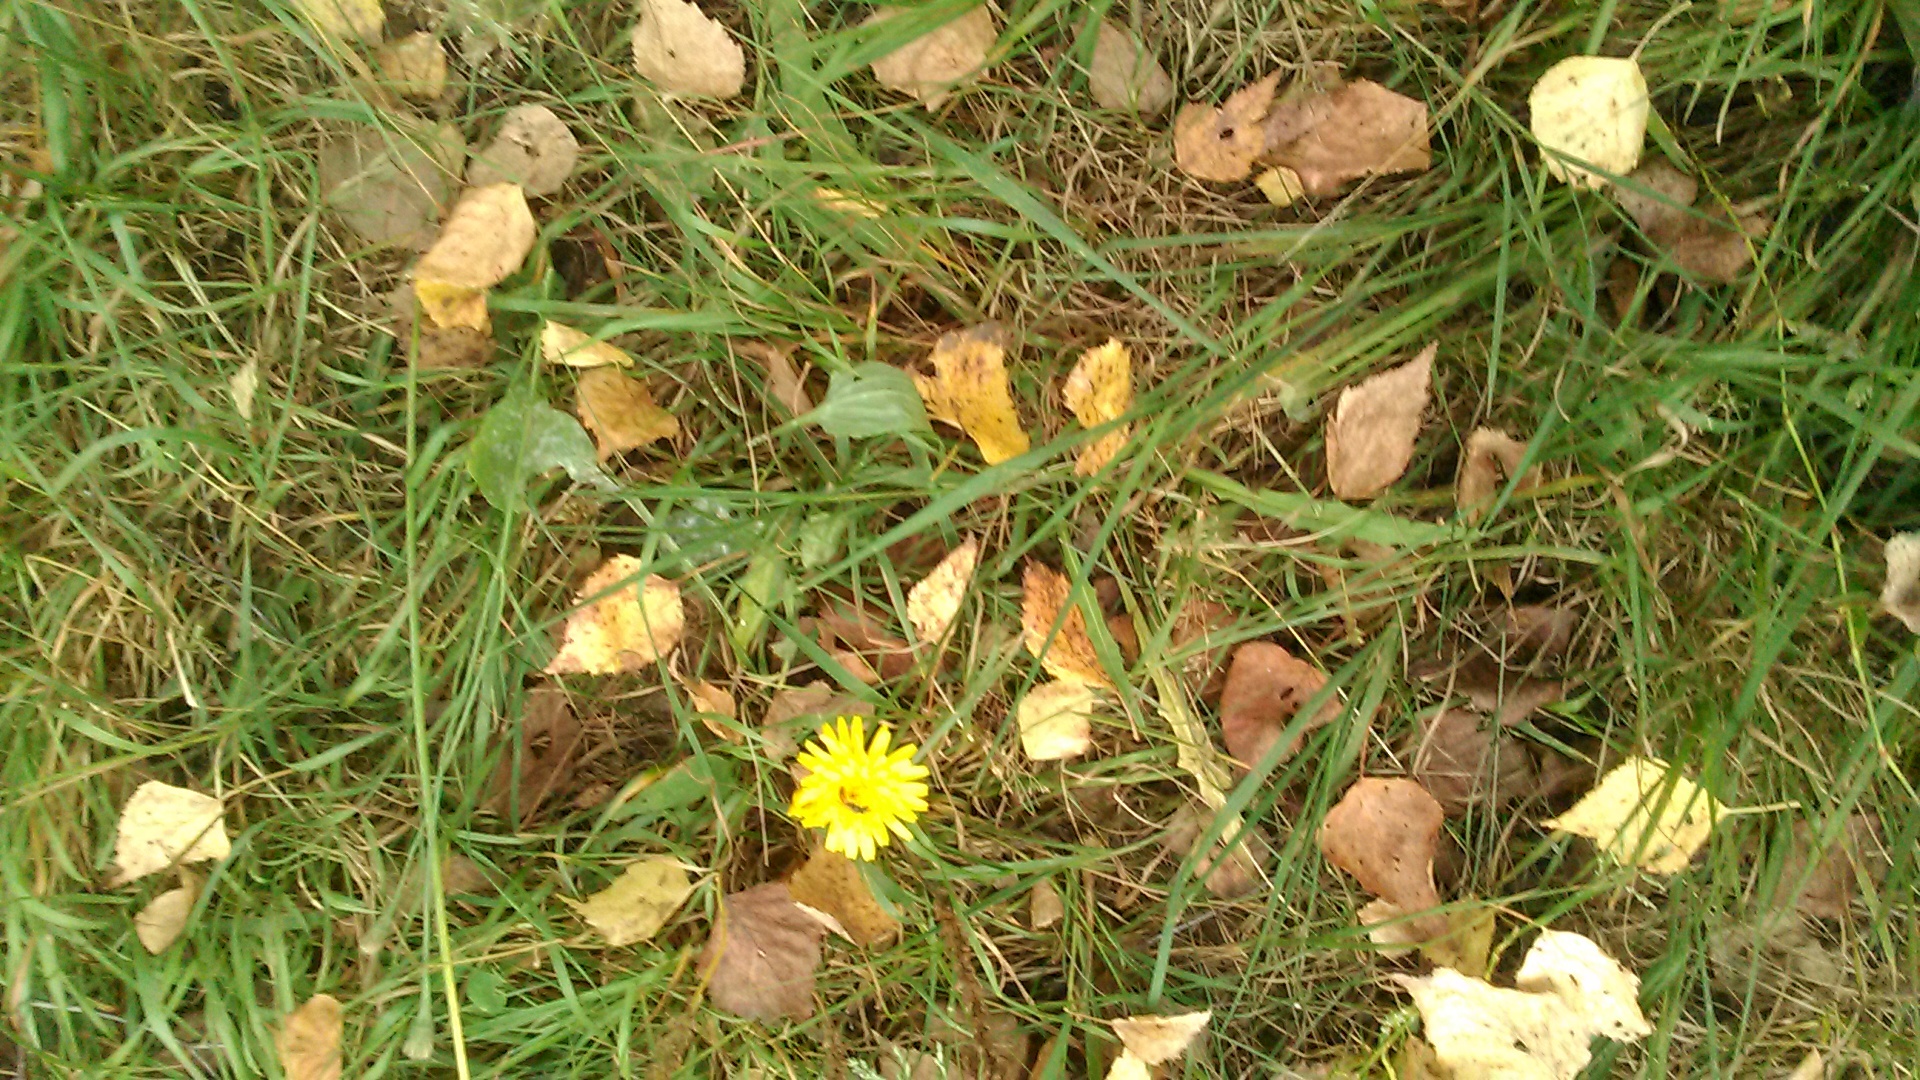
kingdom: Plantae
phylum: Tracheophyta
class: Magnoliopsida
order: Asterales
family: Asteraceae
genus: Scorzoneroides
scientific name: Scorzoneroides autumnalis
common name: Autumn hawkbit
